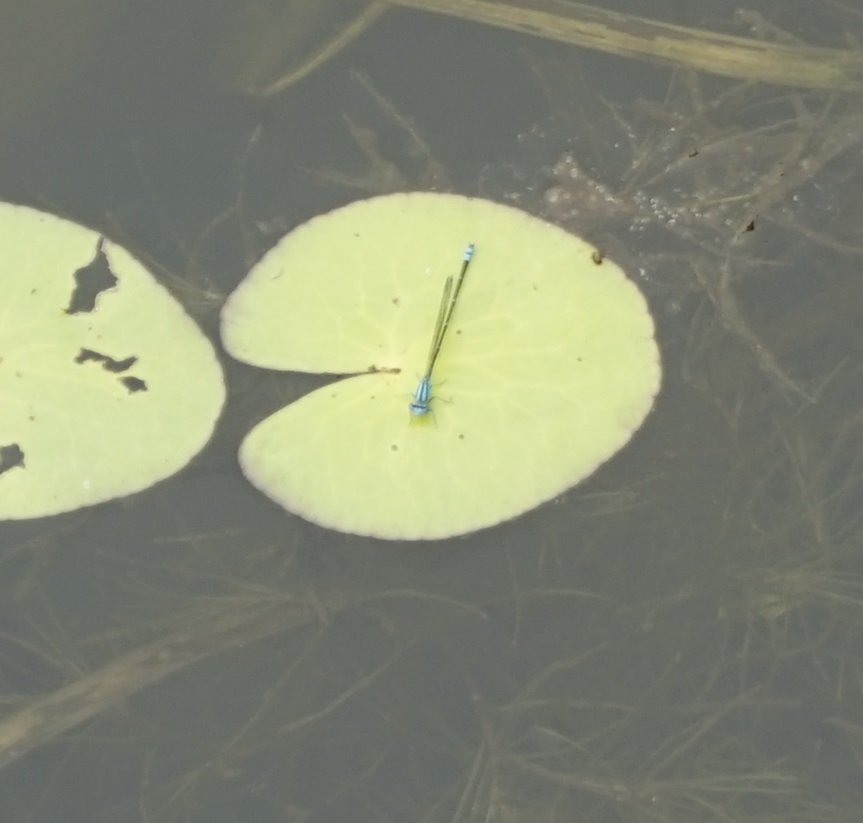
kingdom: Animalia
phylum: Arthropoda
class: Insecta
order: Odonata
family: Coenagrionidae
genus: Pseudagrion
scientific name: Pseudagrion microcephalum
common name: Blue riverdamsel
